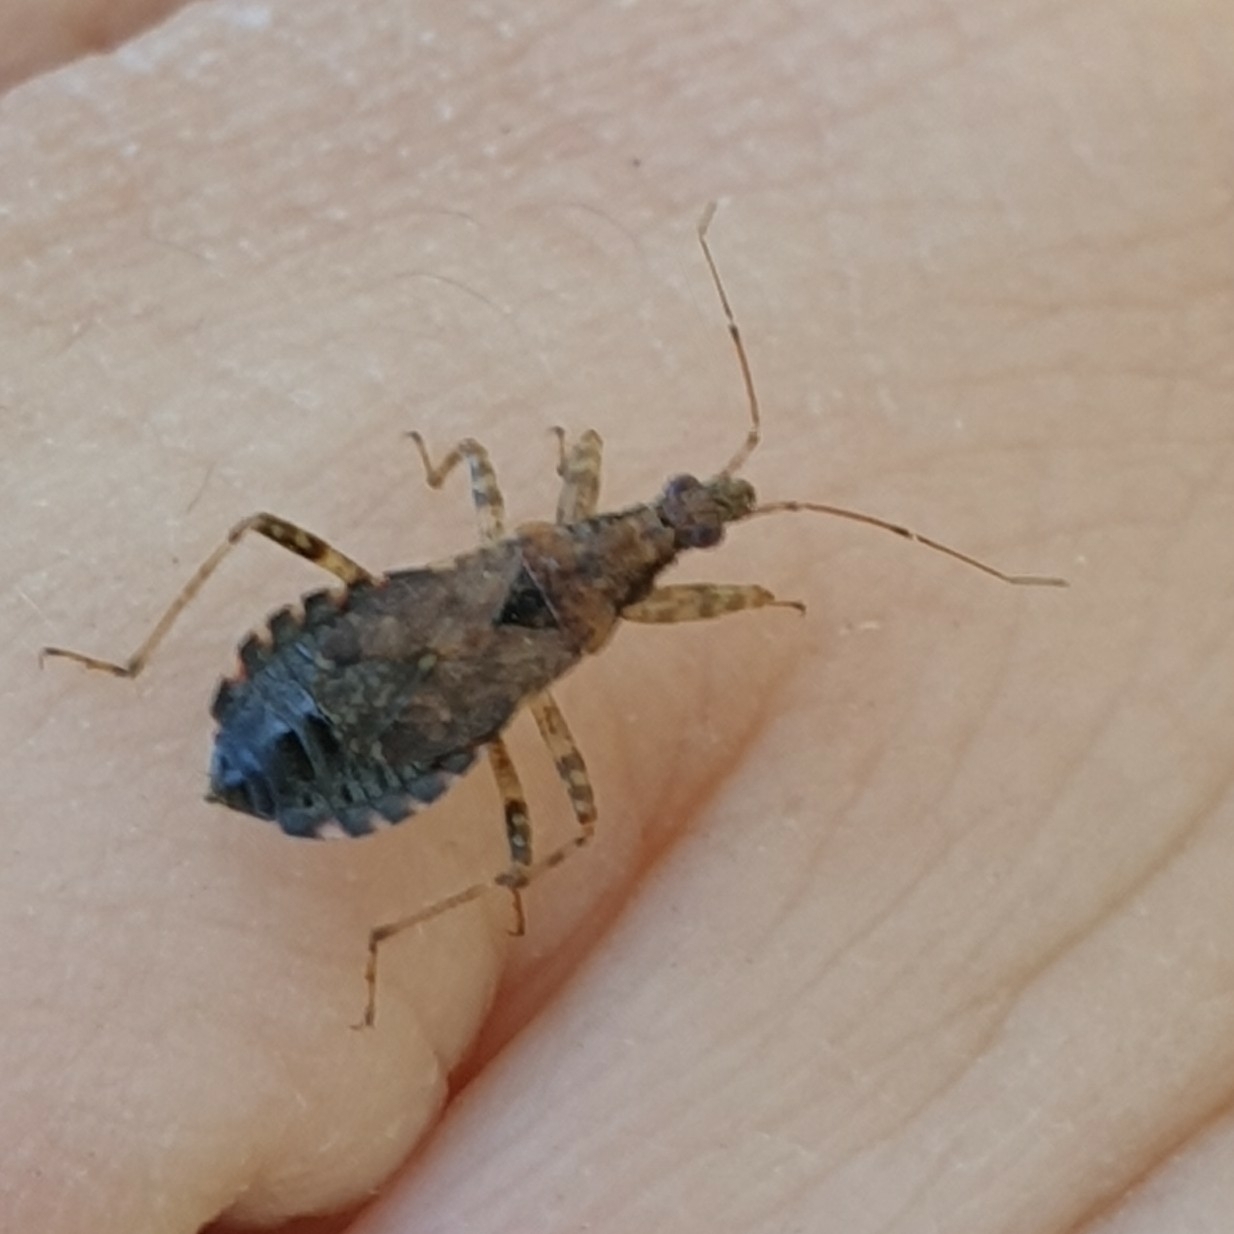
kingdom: Animalia
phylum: Arthropoda
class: Insecta
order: Hemiptera
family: Nabidae
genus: Himacerus
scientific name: Himacerus mirmicoides
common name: Ant damsel bug
